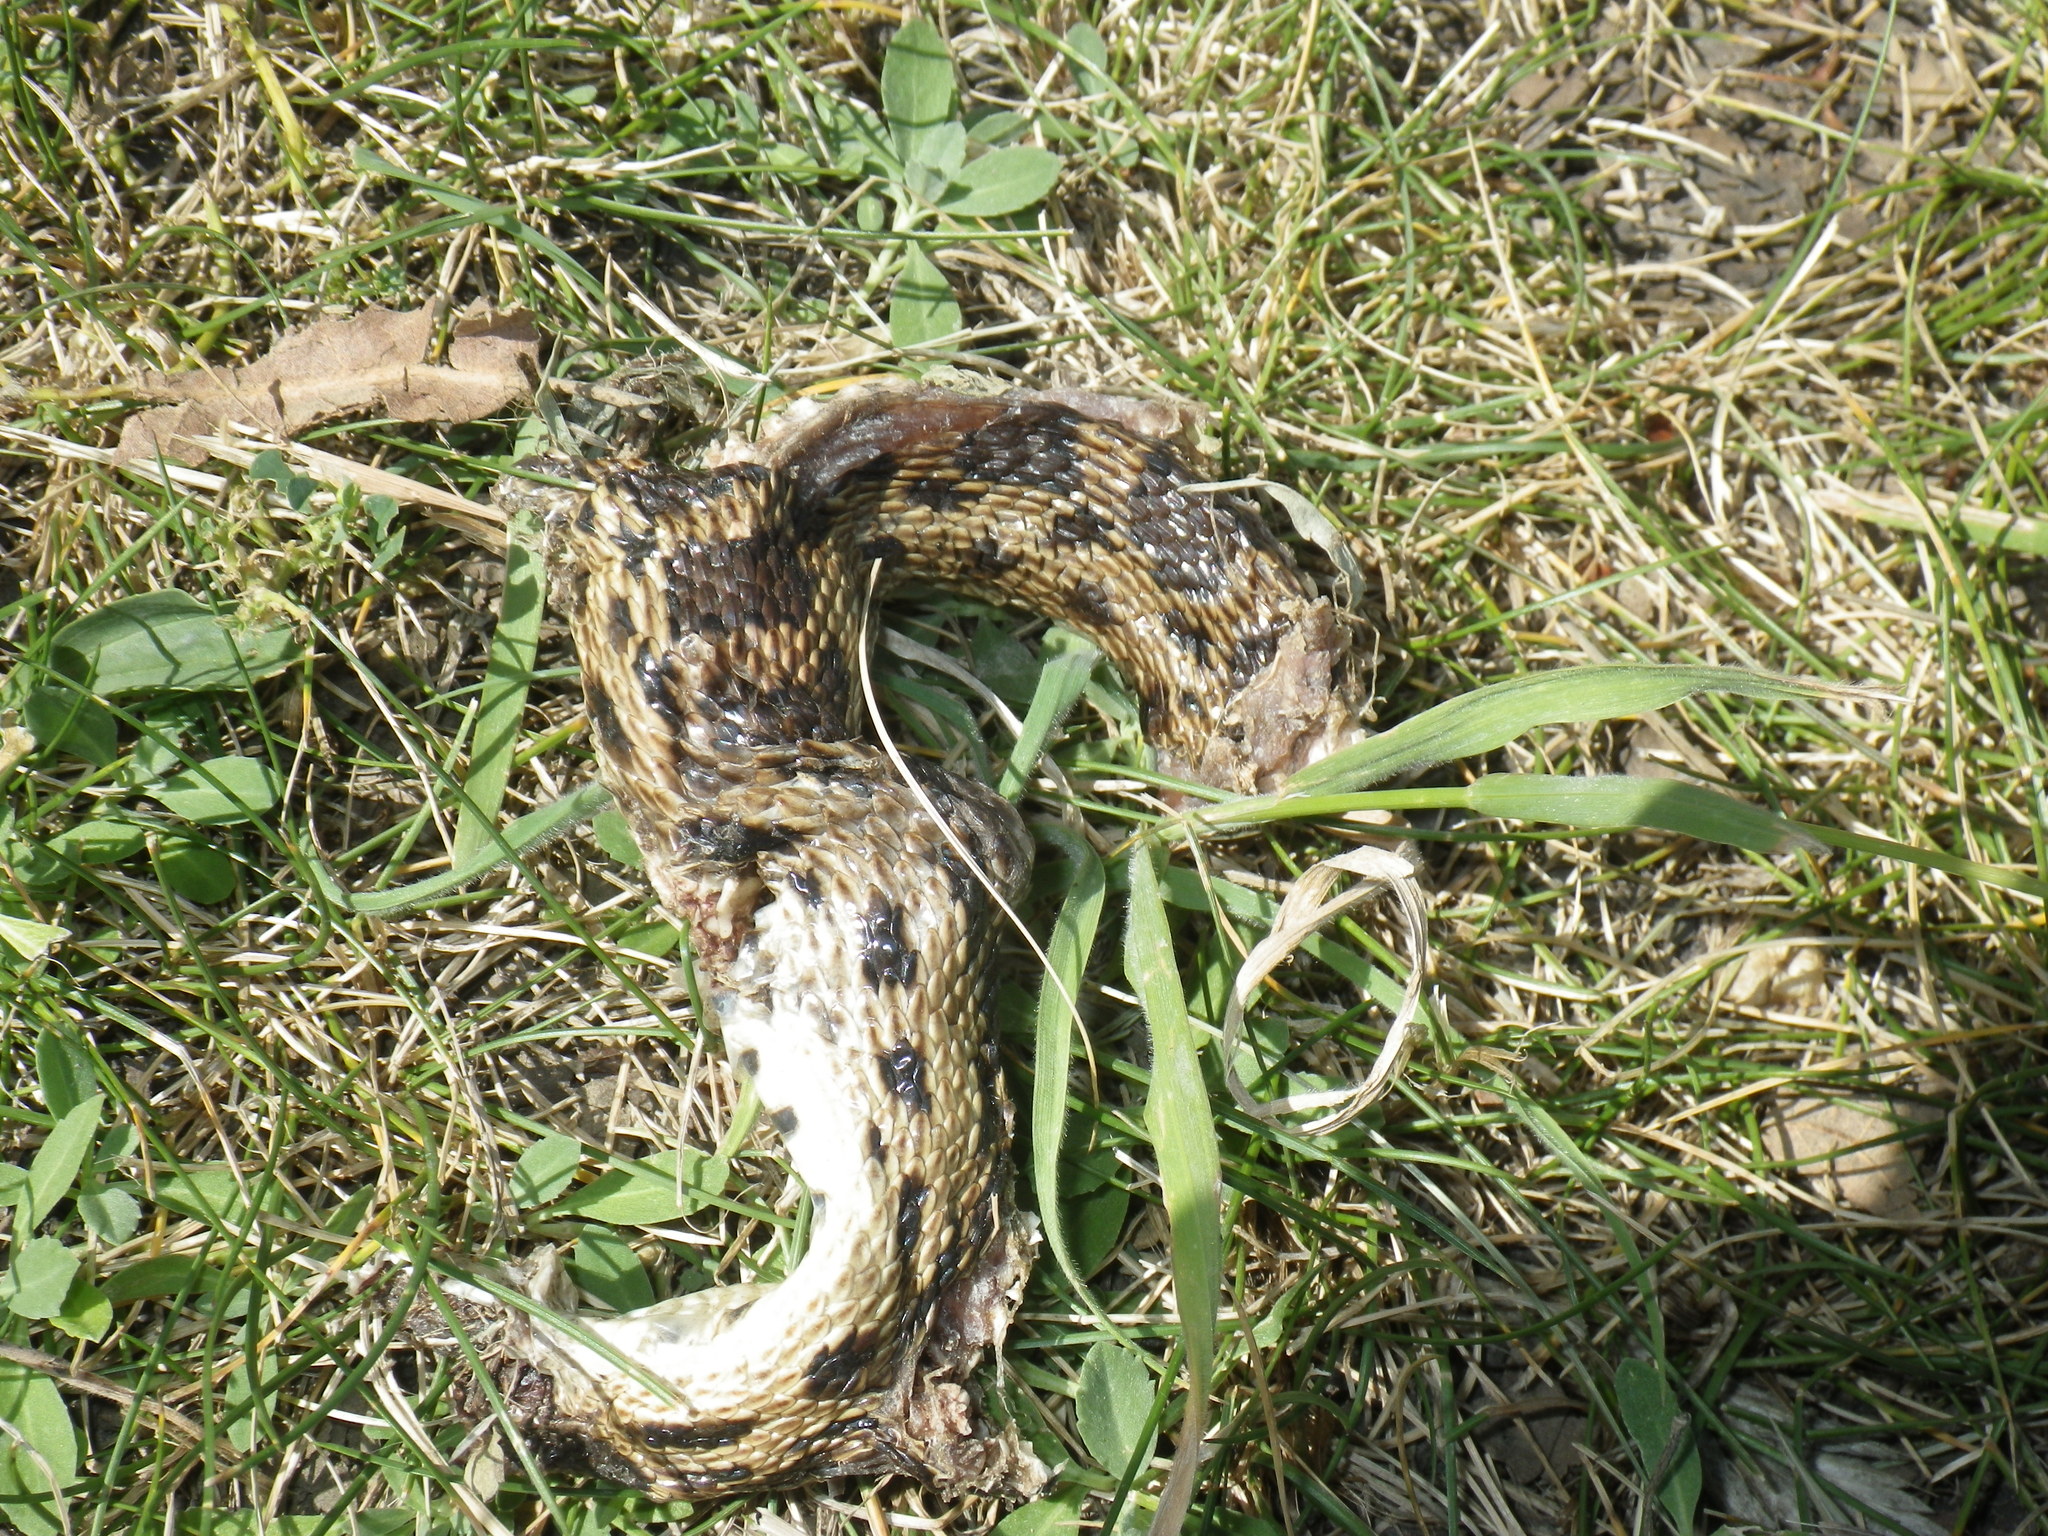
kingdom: Animalia
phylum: Chordata
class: Squamata
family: Colubridae
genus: Pituophis
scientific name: Pituophis catenifer
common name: Gopher snake
